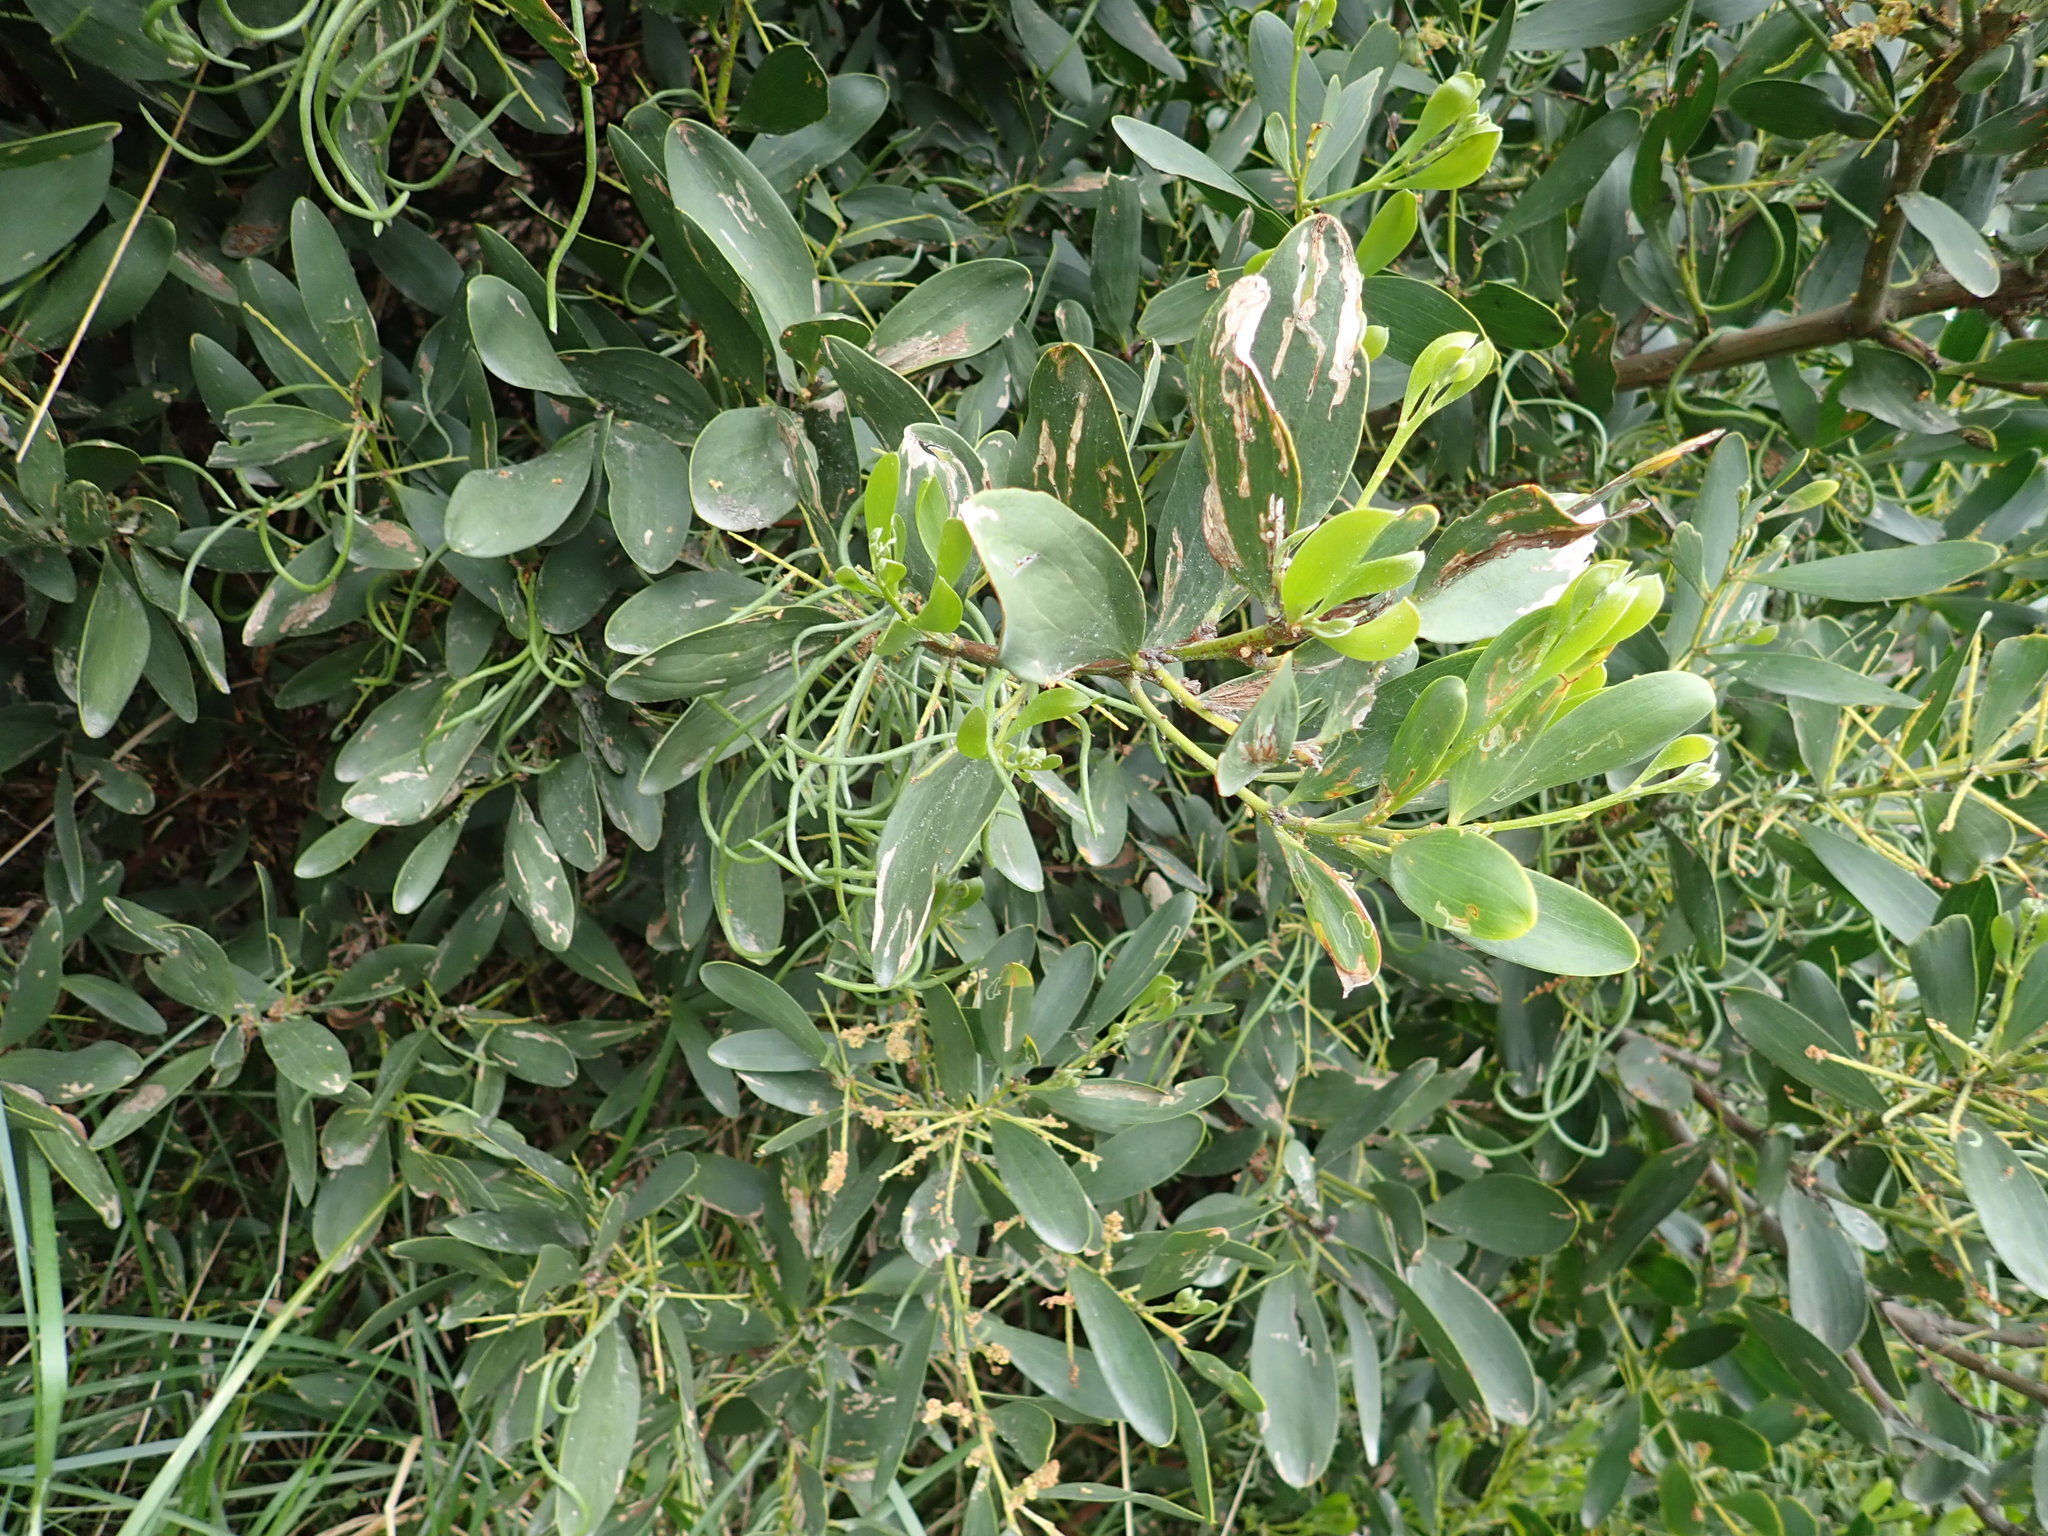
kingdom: Plantae
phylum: Tracheophyta
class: Magnoliopsida
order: Fabales
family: Fabaceae
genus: Acacia
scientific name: Acacia longifolia
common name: Sydney golden wattle
